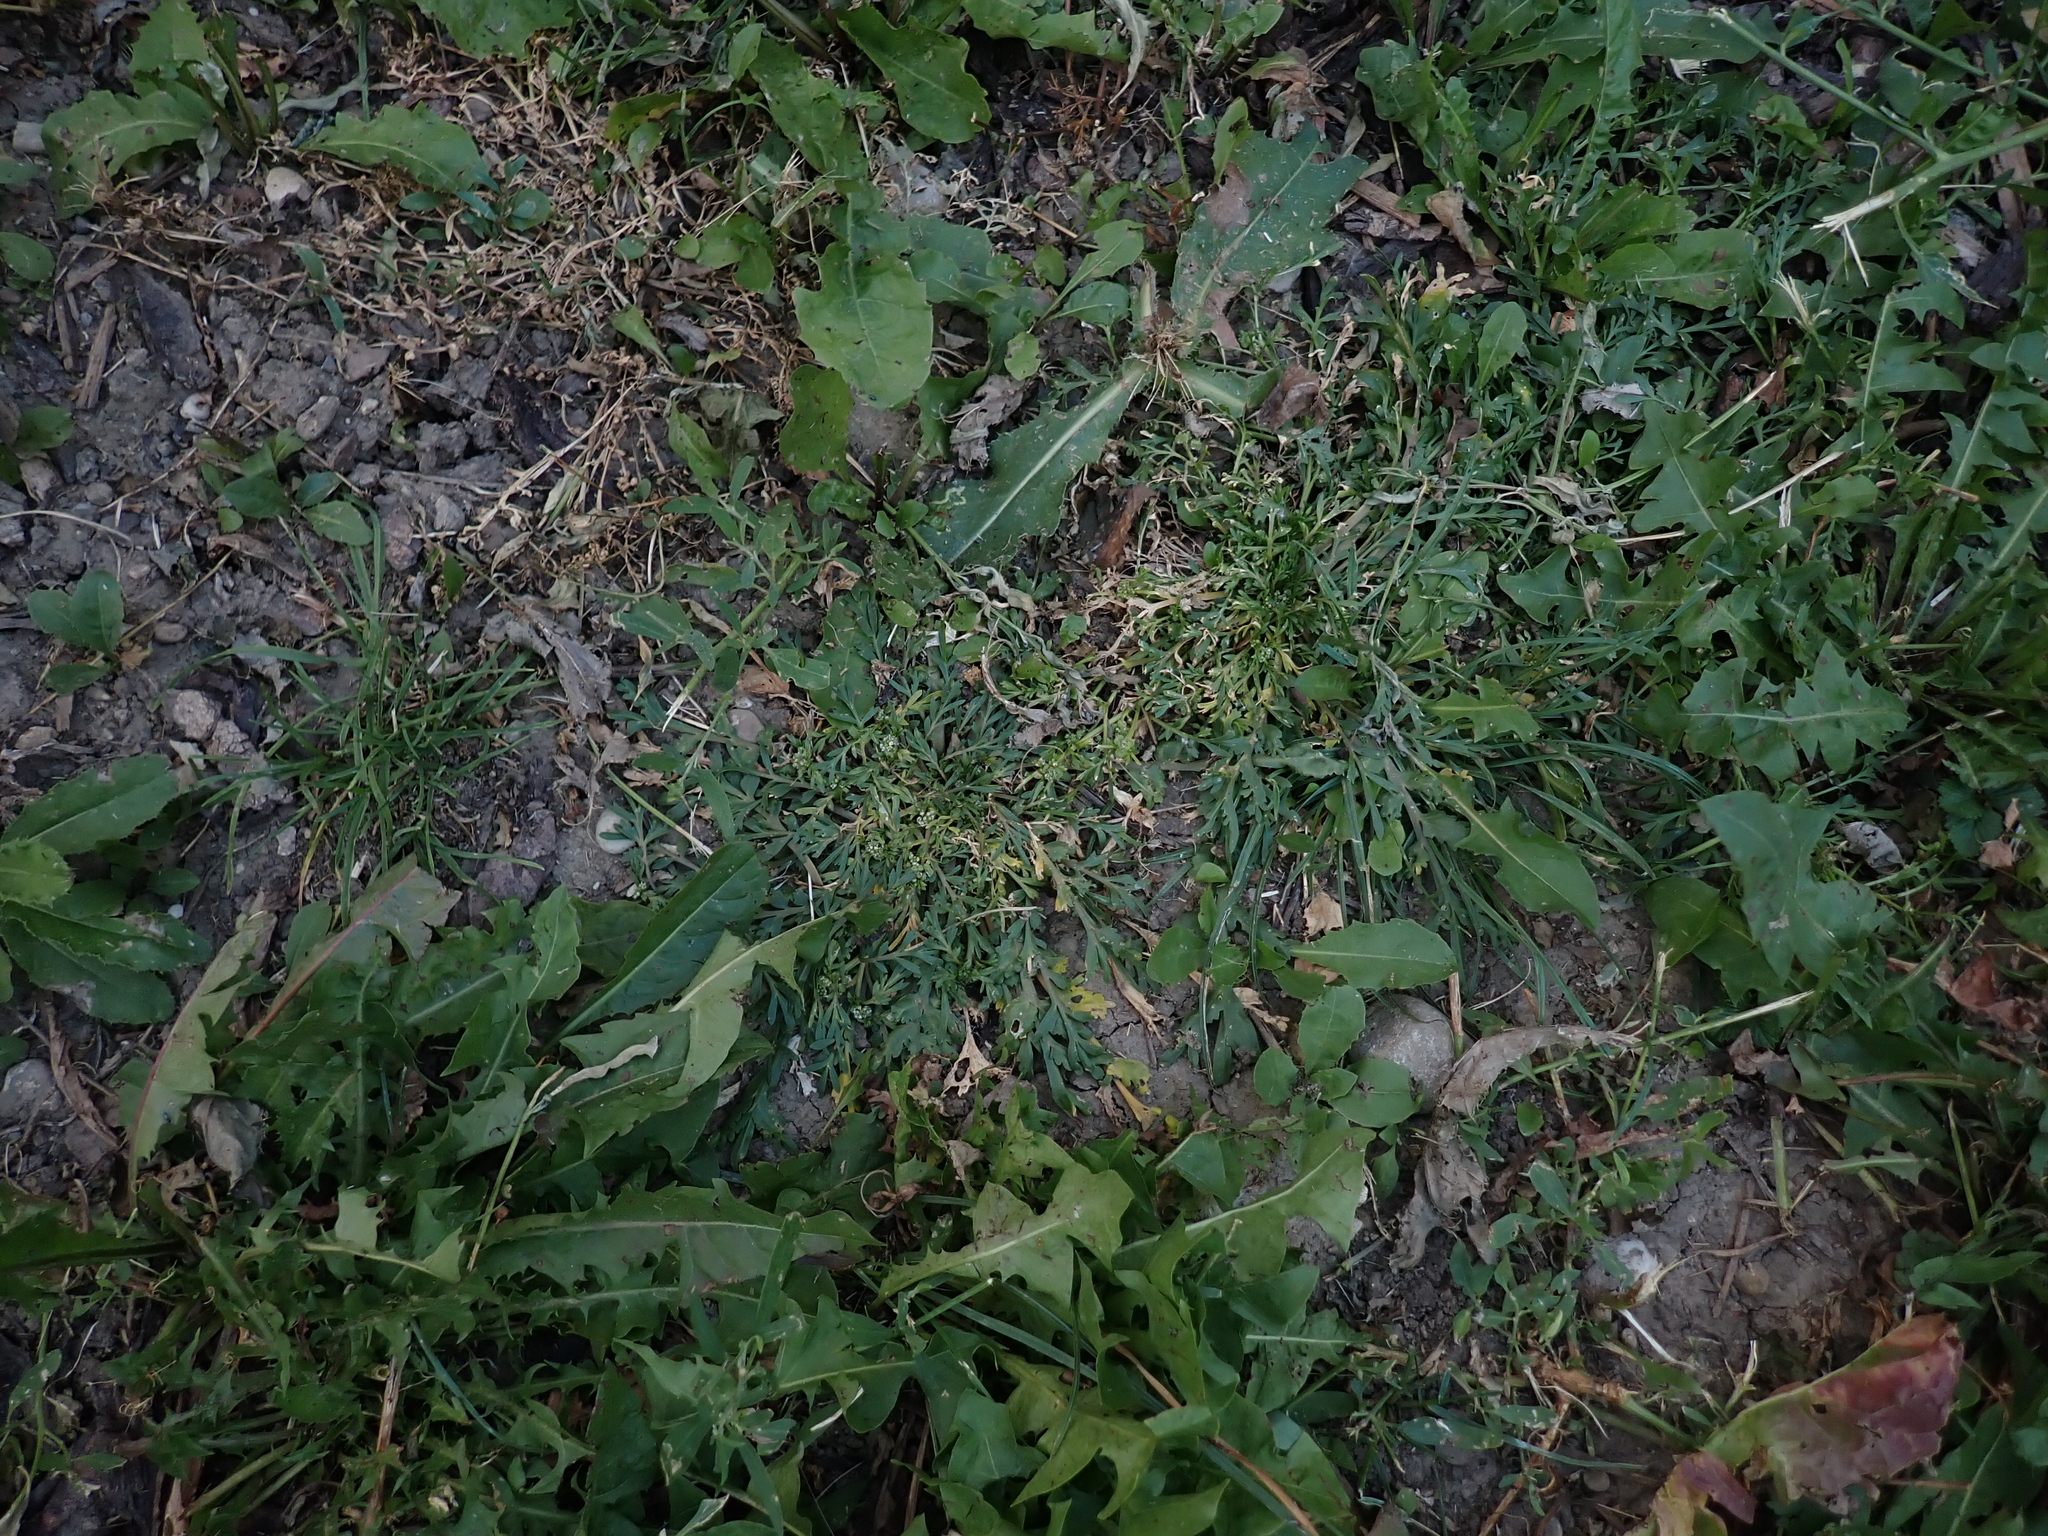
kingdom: Plantae
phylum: Tracheophyta
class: Magnoliopsida
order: Brassicales
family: Brassicaceae
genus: Lepidium
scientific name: Lepidium coronopus
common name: Greater swinecress
